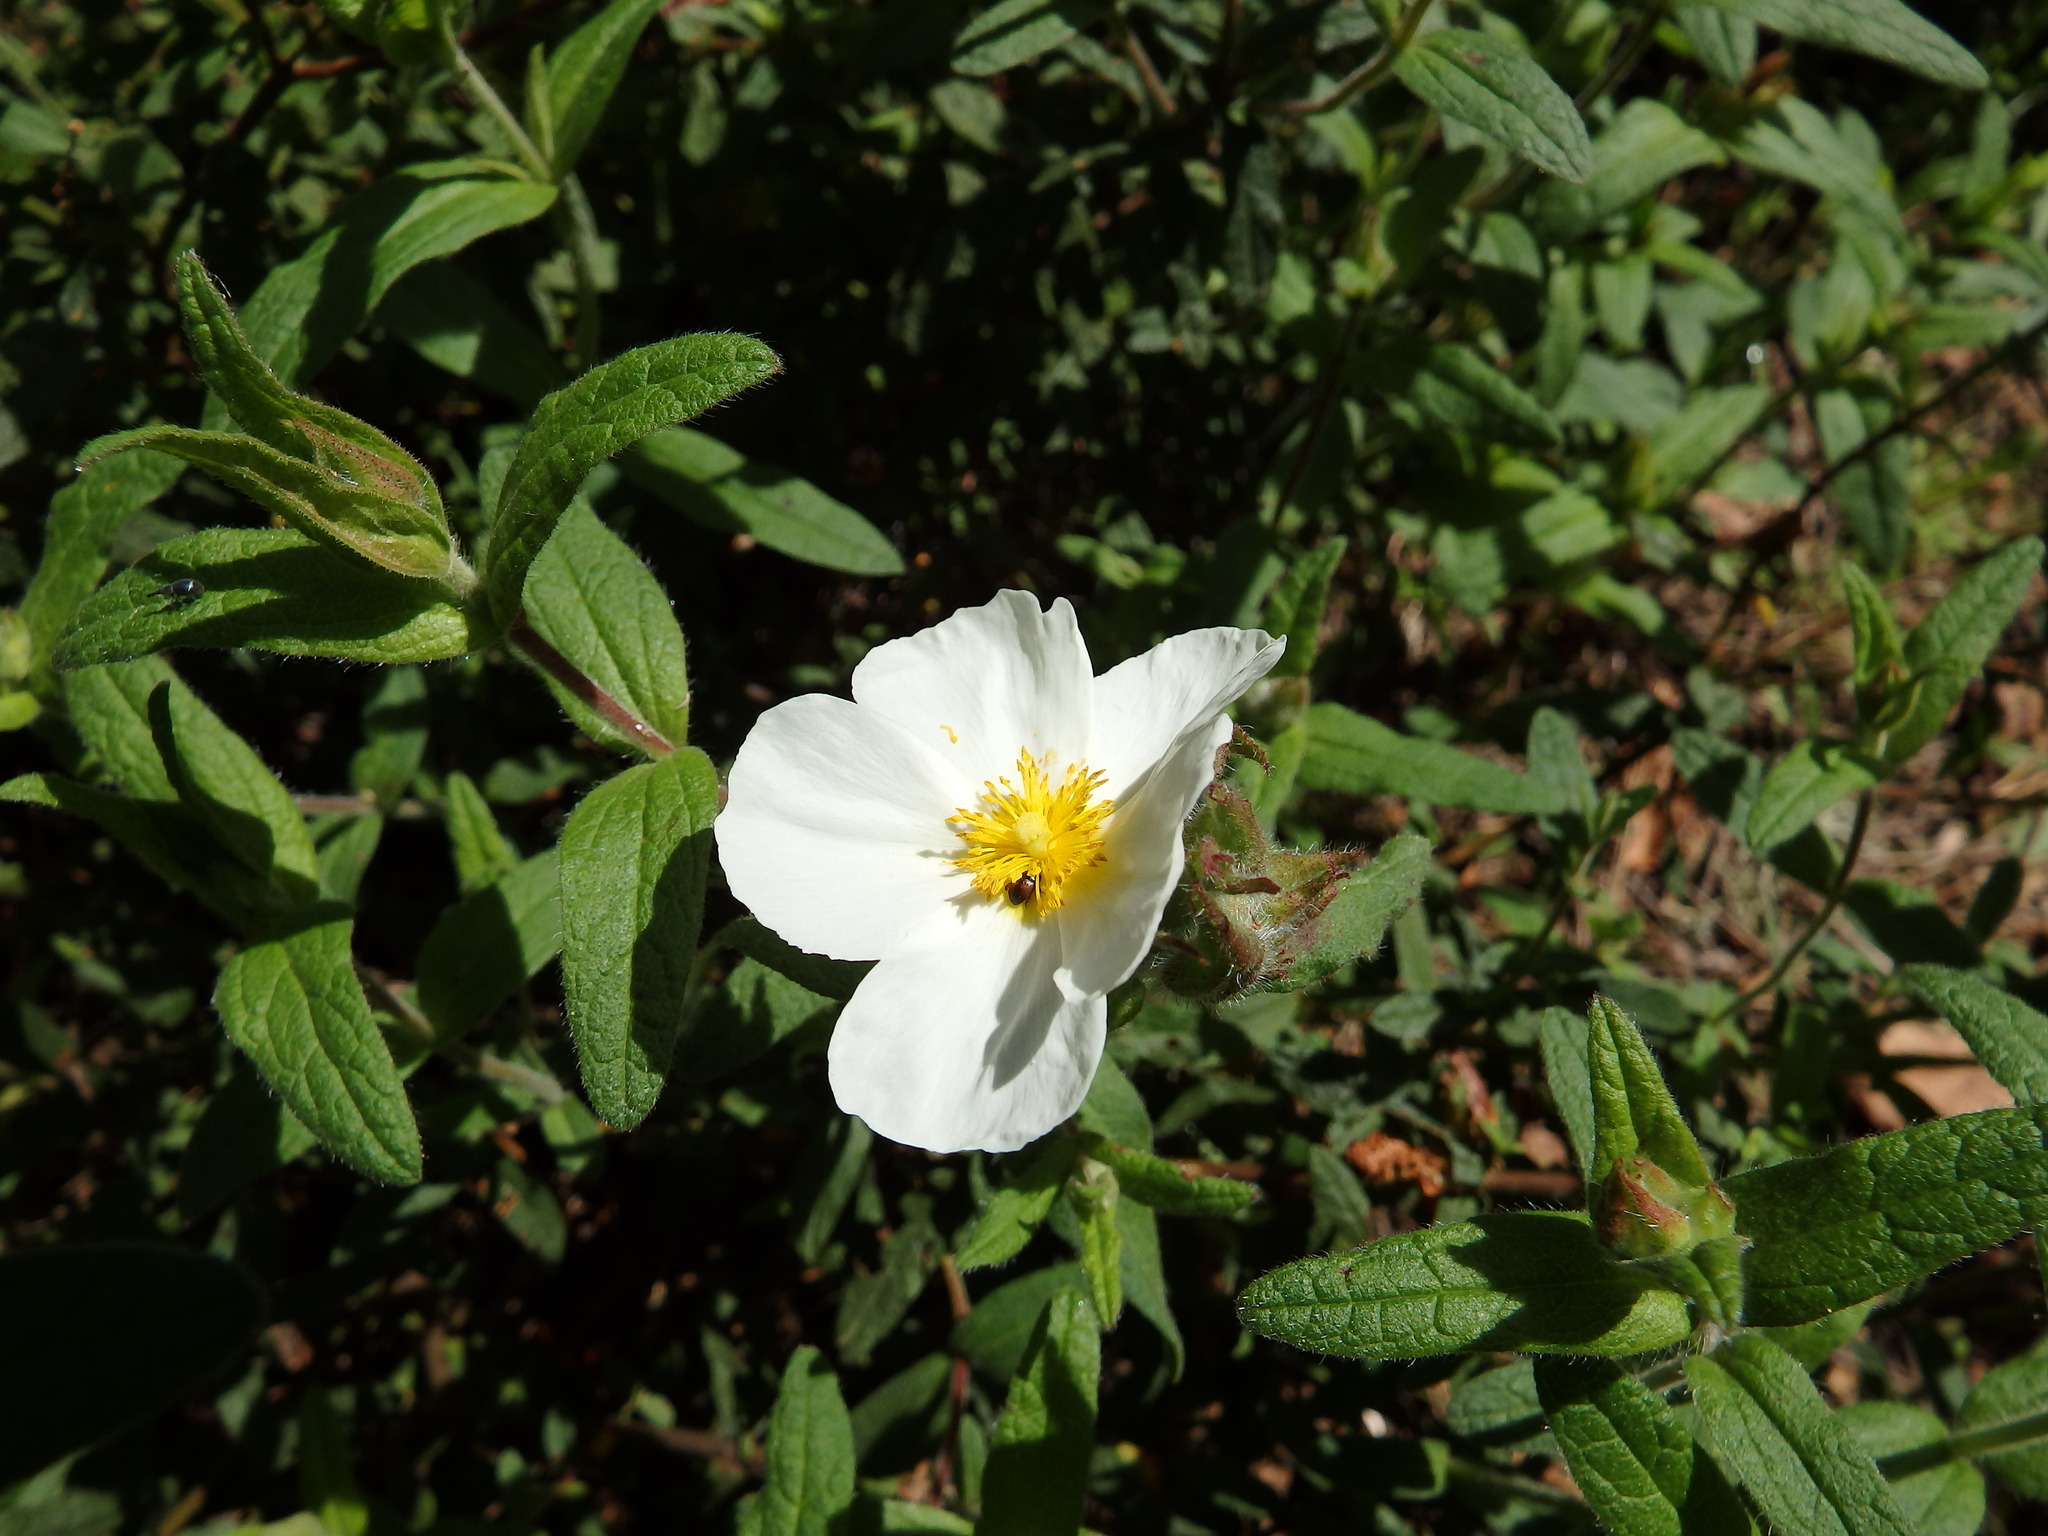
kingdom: Plantae
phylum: Tracheophyta
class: Magnoliopsida
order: Malvales
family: Cistaceae
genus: Cistus
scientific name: Cistus inflatus
